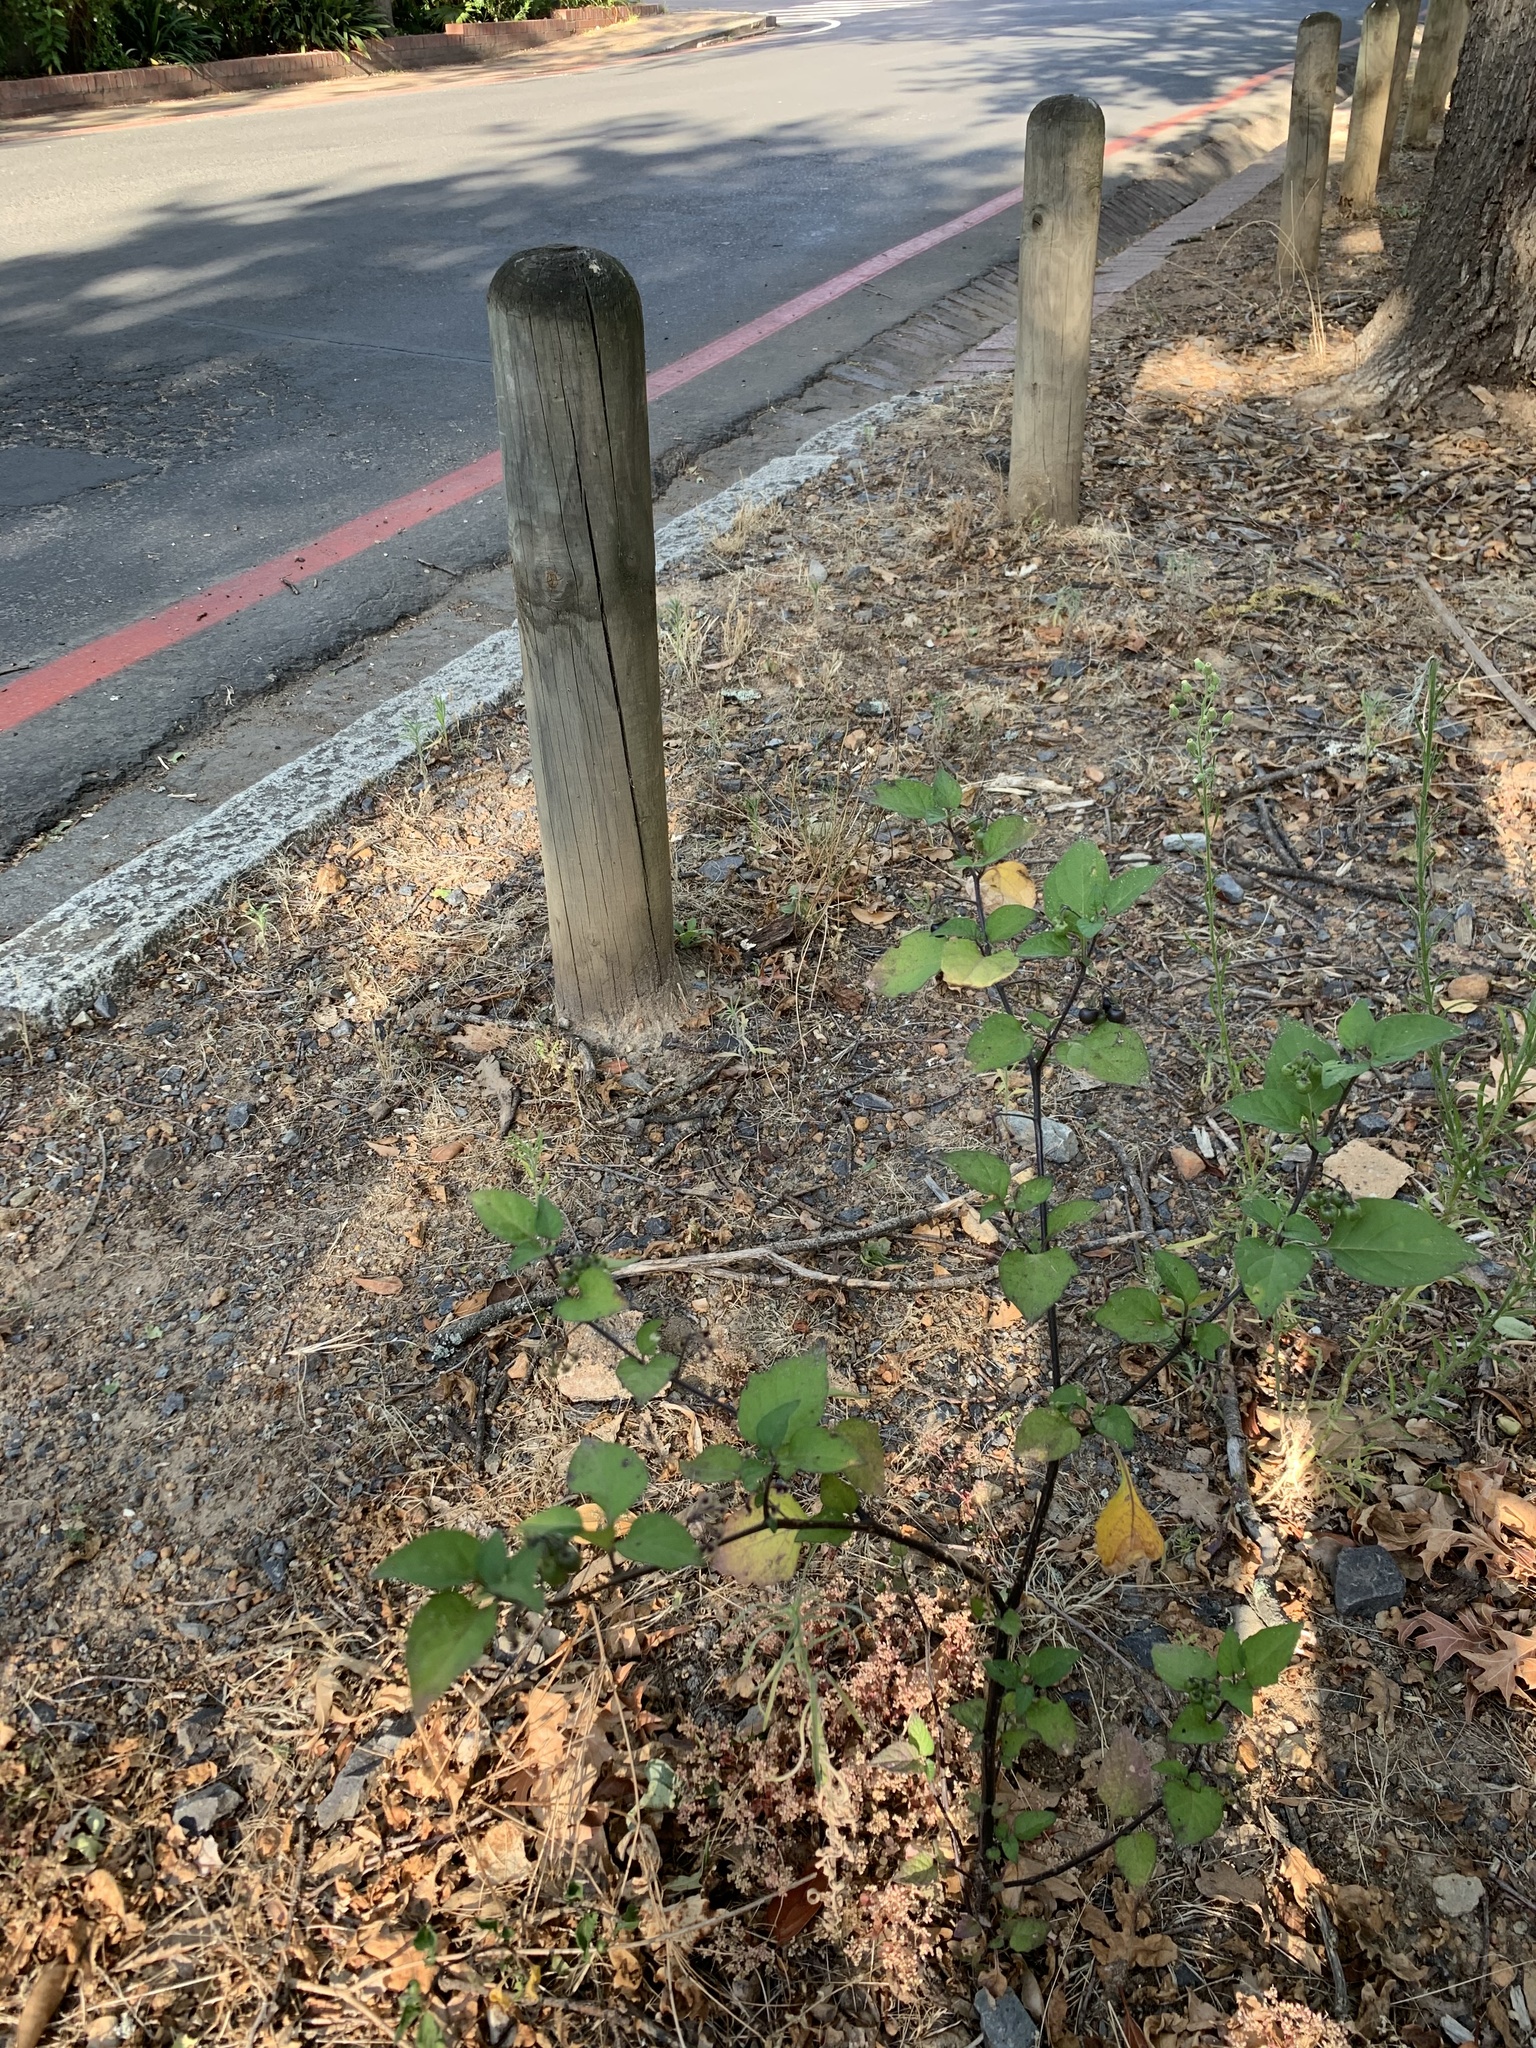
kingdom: Plantae
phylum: Tracheophyta
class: Magnoliopsida
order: Solanales
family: Solanaceae
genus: Solanum
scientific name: Solanum nigrum
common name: Black nightshade
